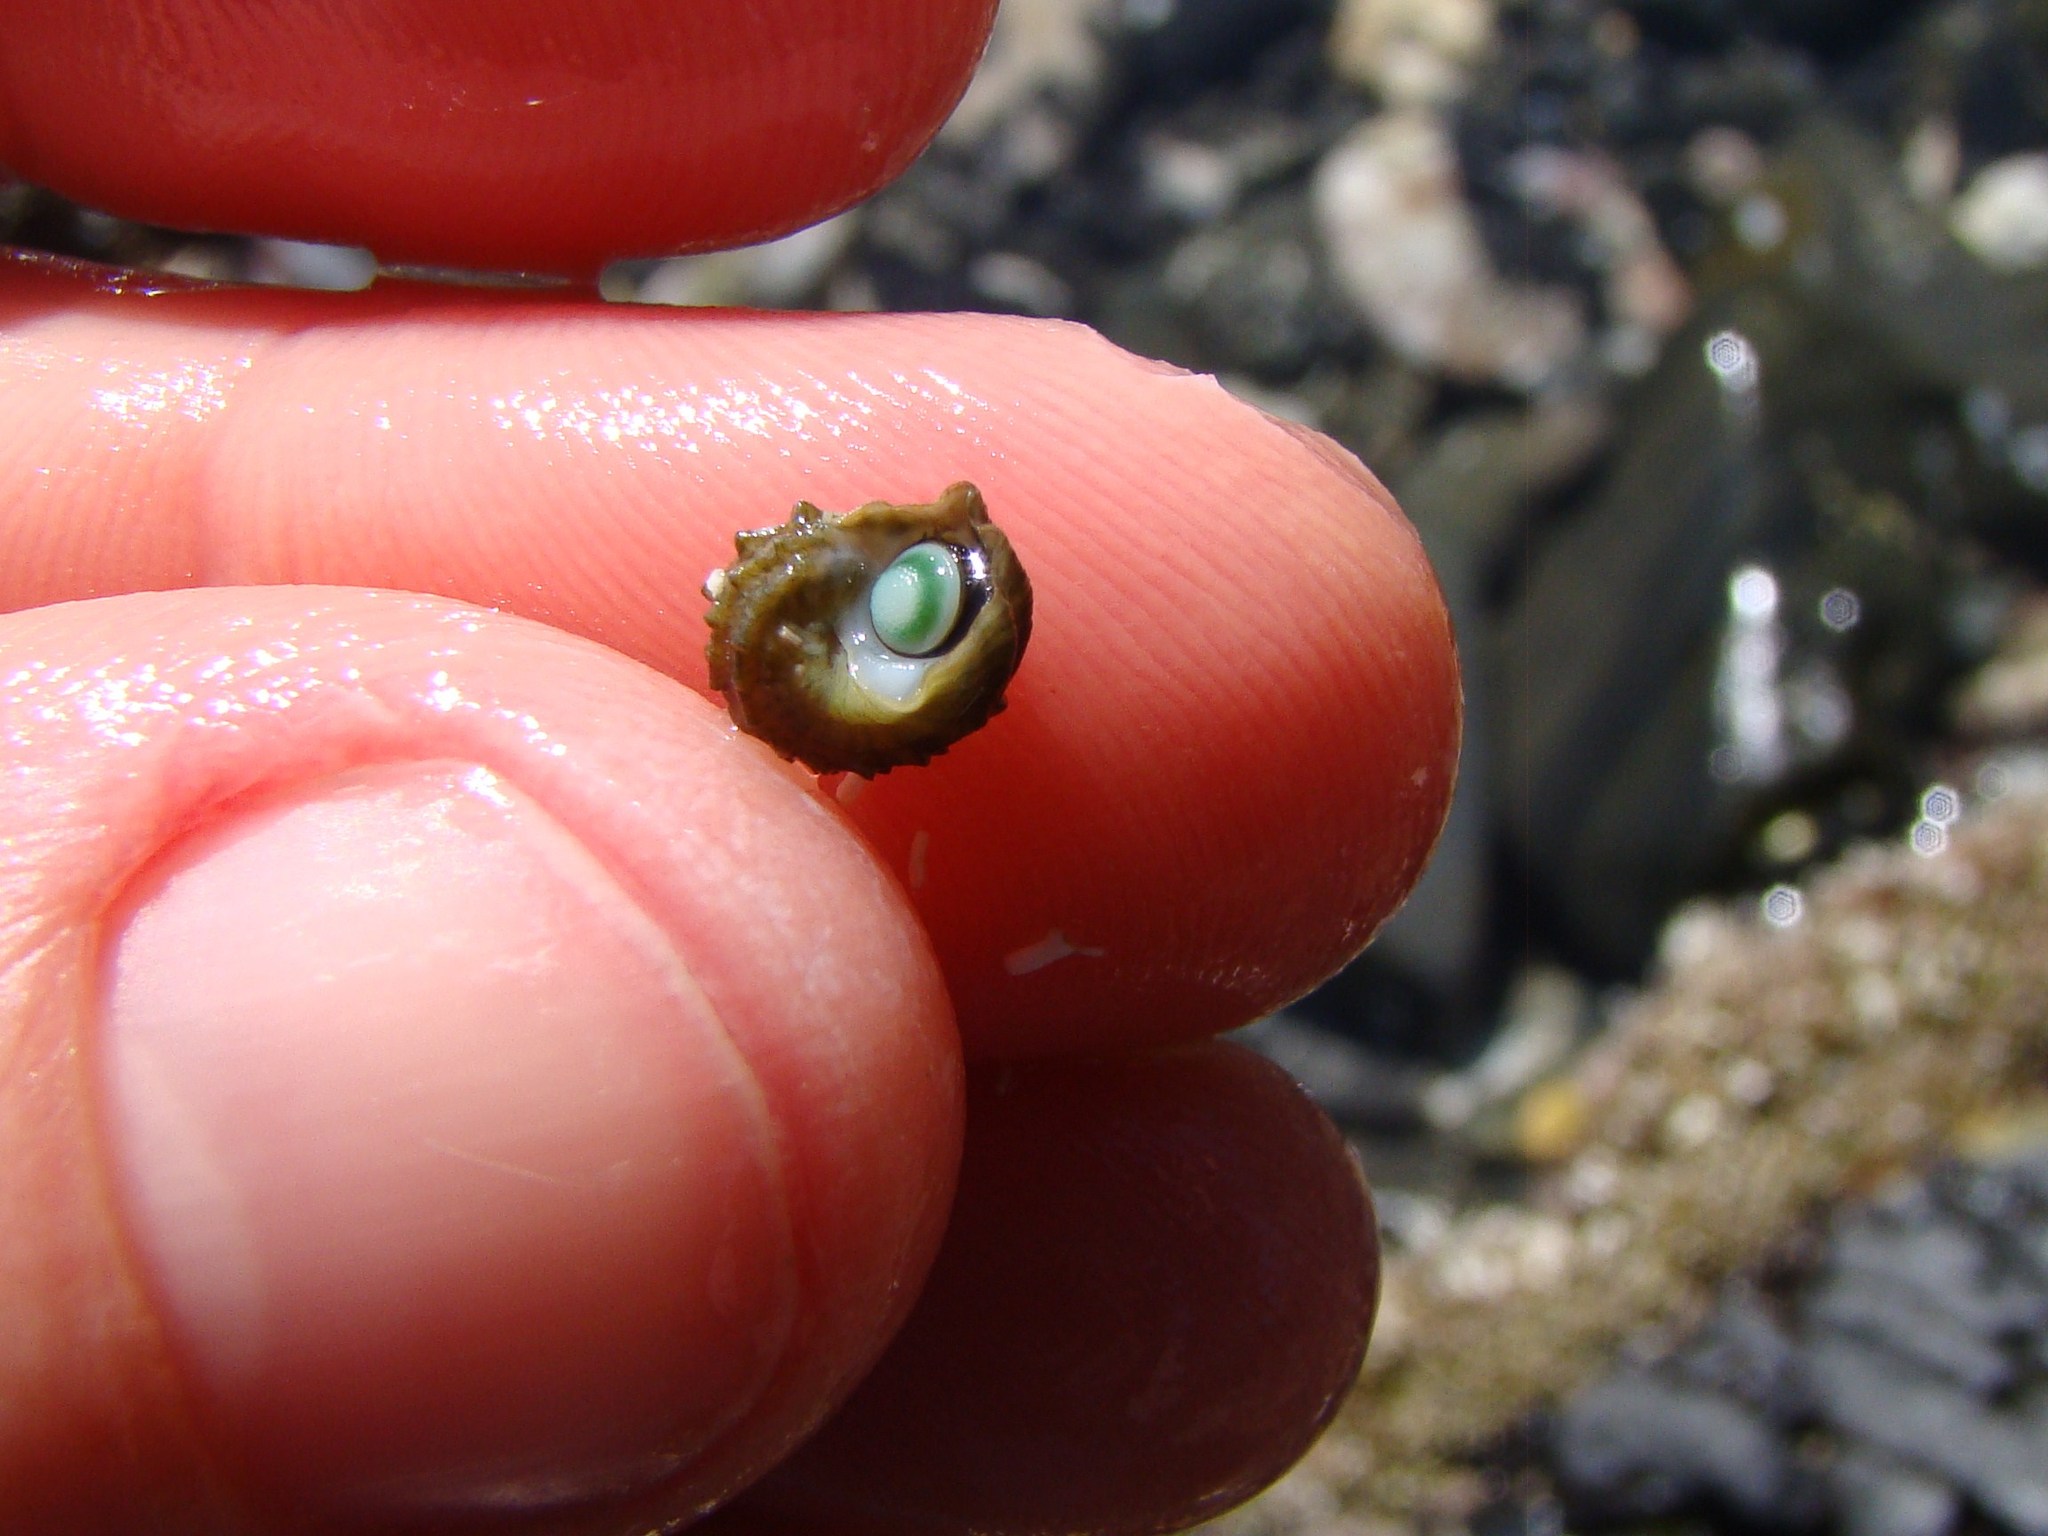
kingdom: Animalia
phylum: Mollusca
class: Gastropoda
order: Trochida
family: Turbinidae
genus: Lunella
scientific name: Lunella smaragda
